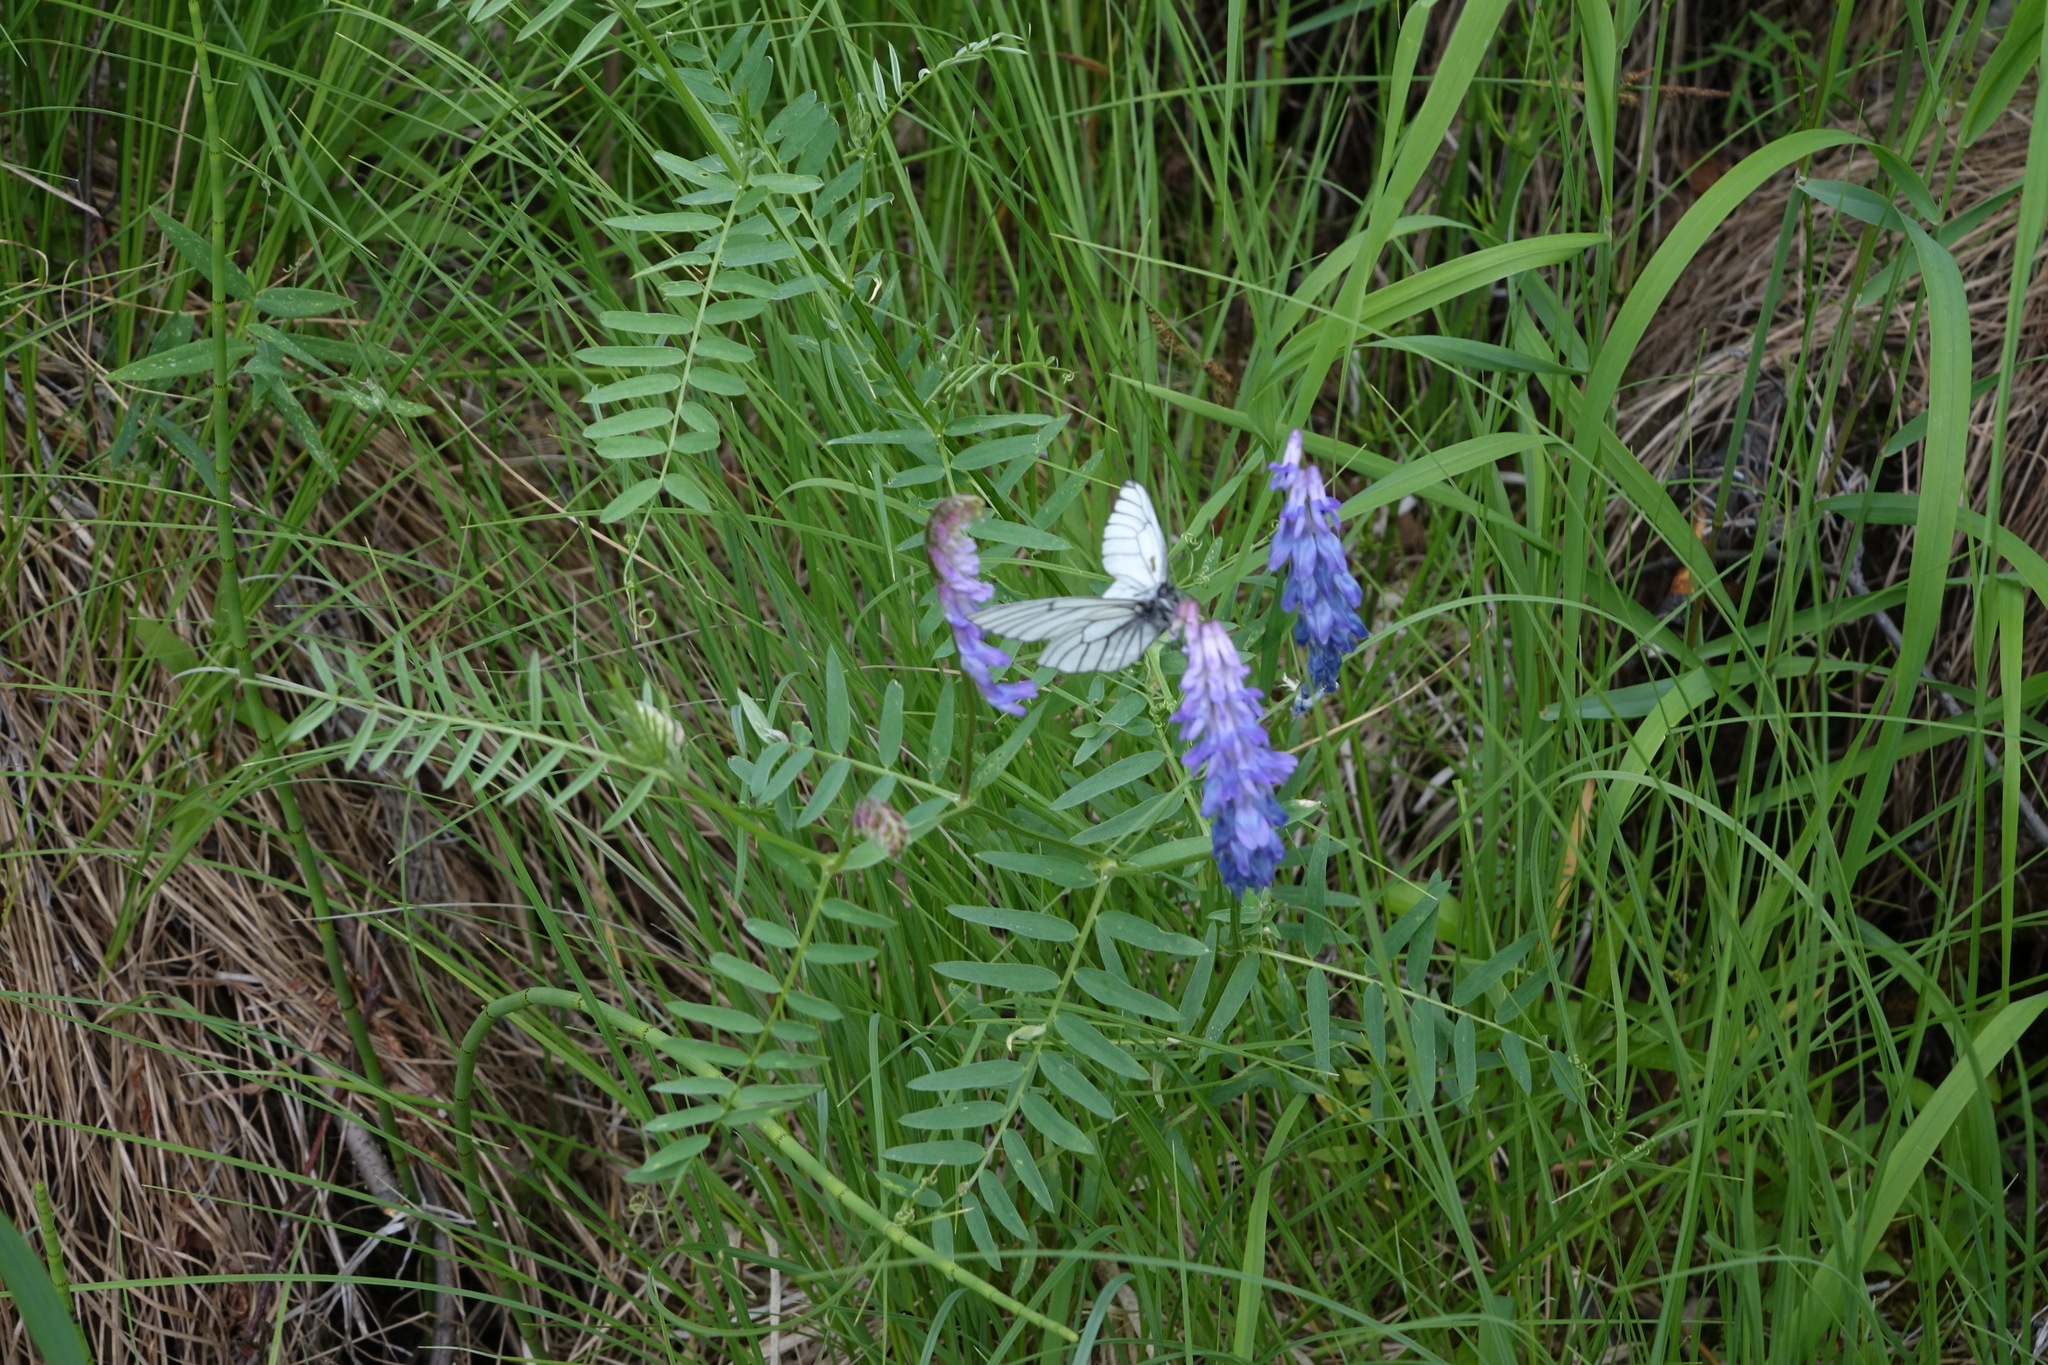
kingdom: Plantae
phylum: Tracheophyta
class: Magnoliopsida
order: Fabales
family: Fabaceae
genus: Vicia
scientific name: Vicia cracca
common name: Bird vetch
